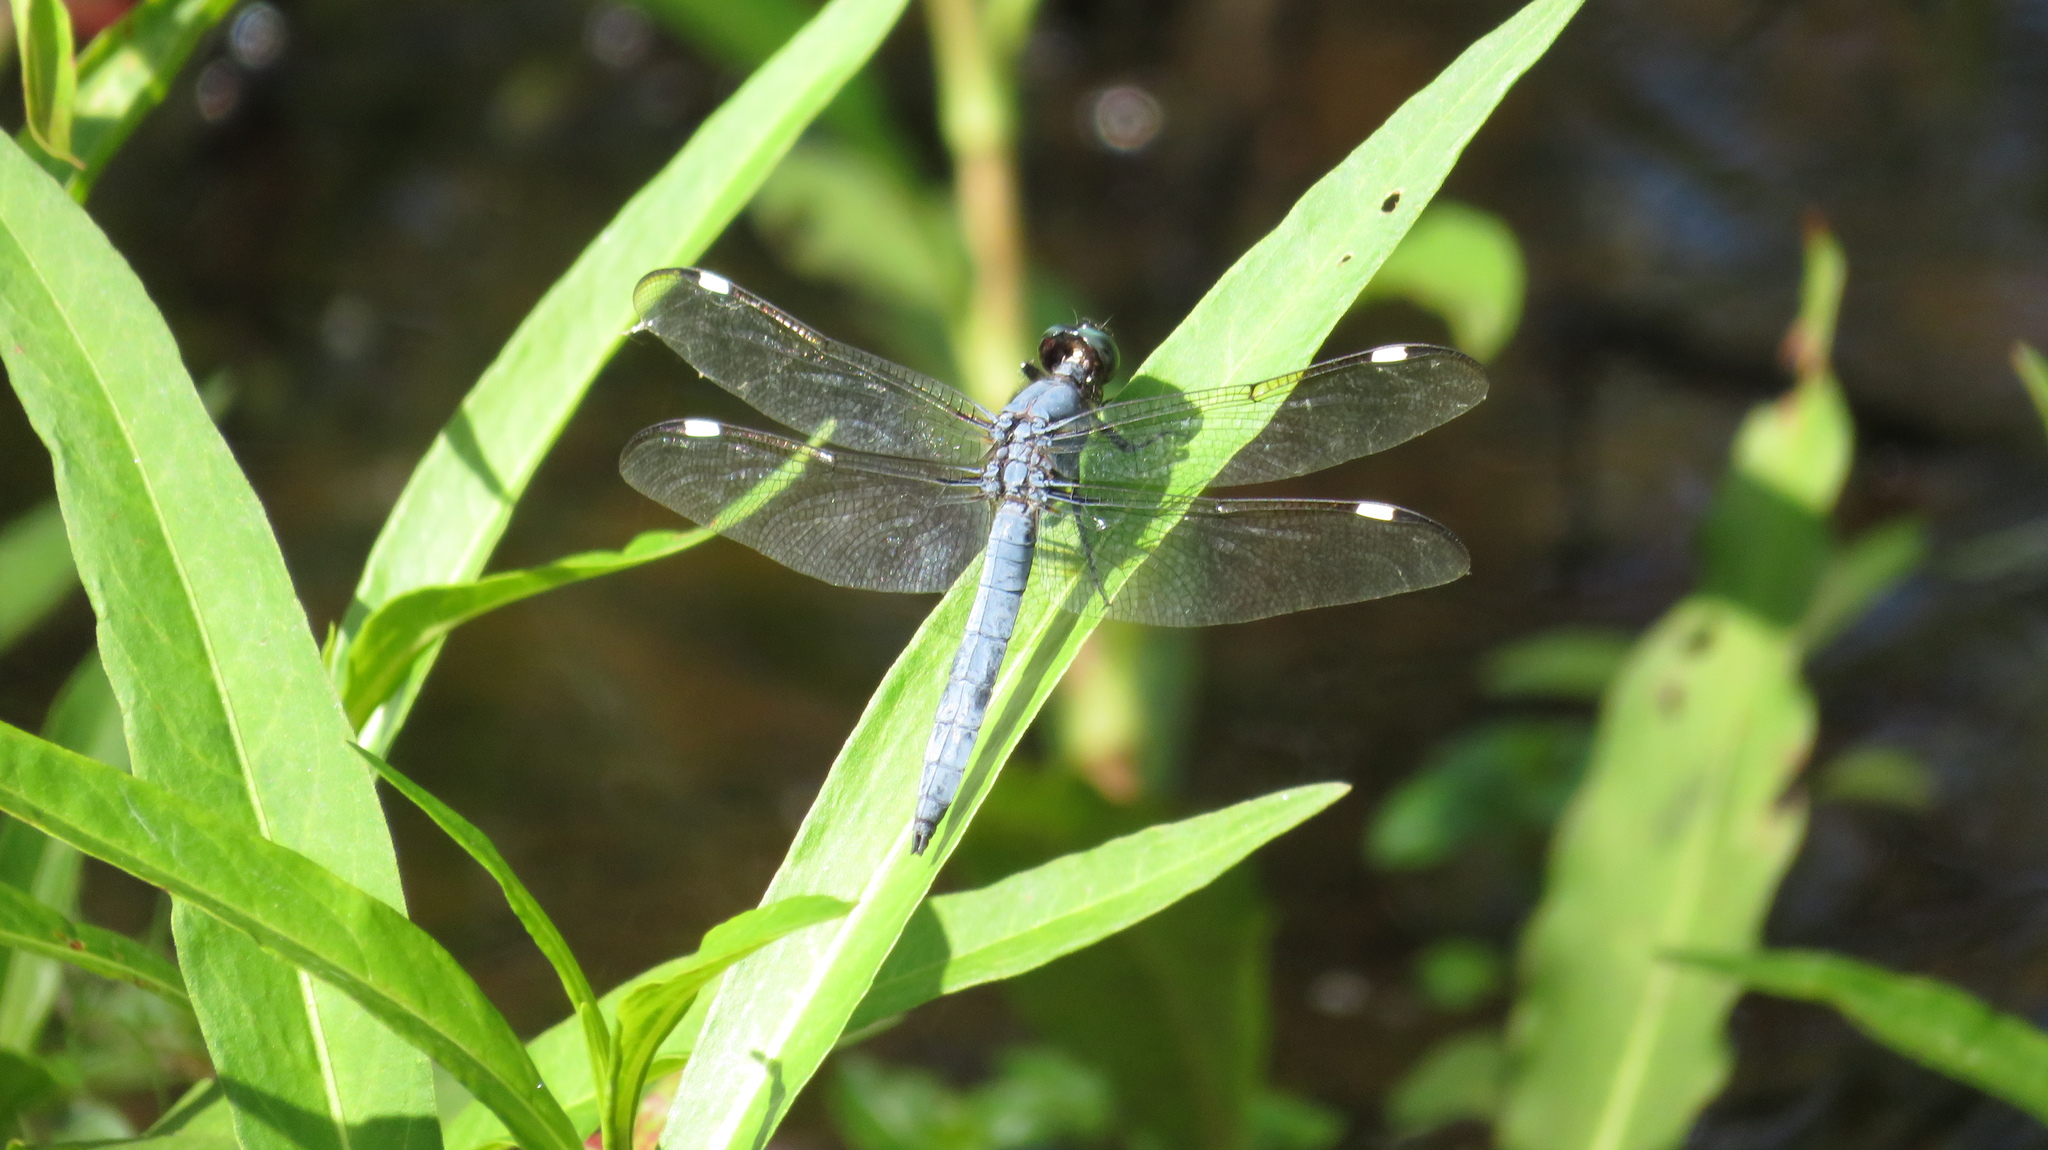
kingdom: Animalia
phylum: Arthropoda
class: Insecta
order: Odonata
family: Libellulidae
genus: Libellula
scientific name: Libellula cyanea
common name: Spangled skimmer
